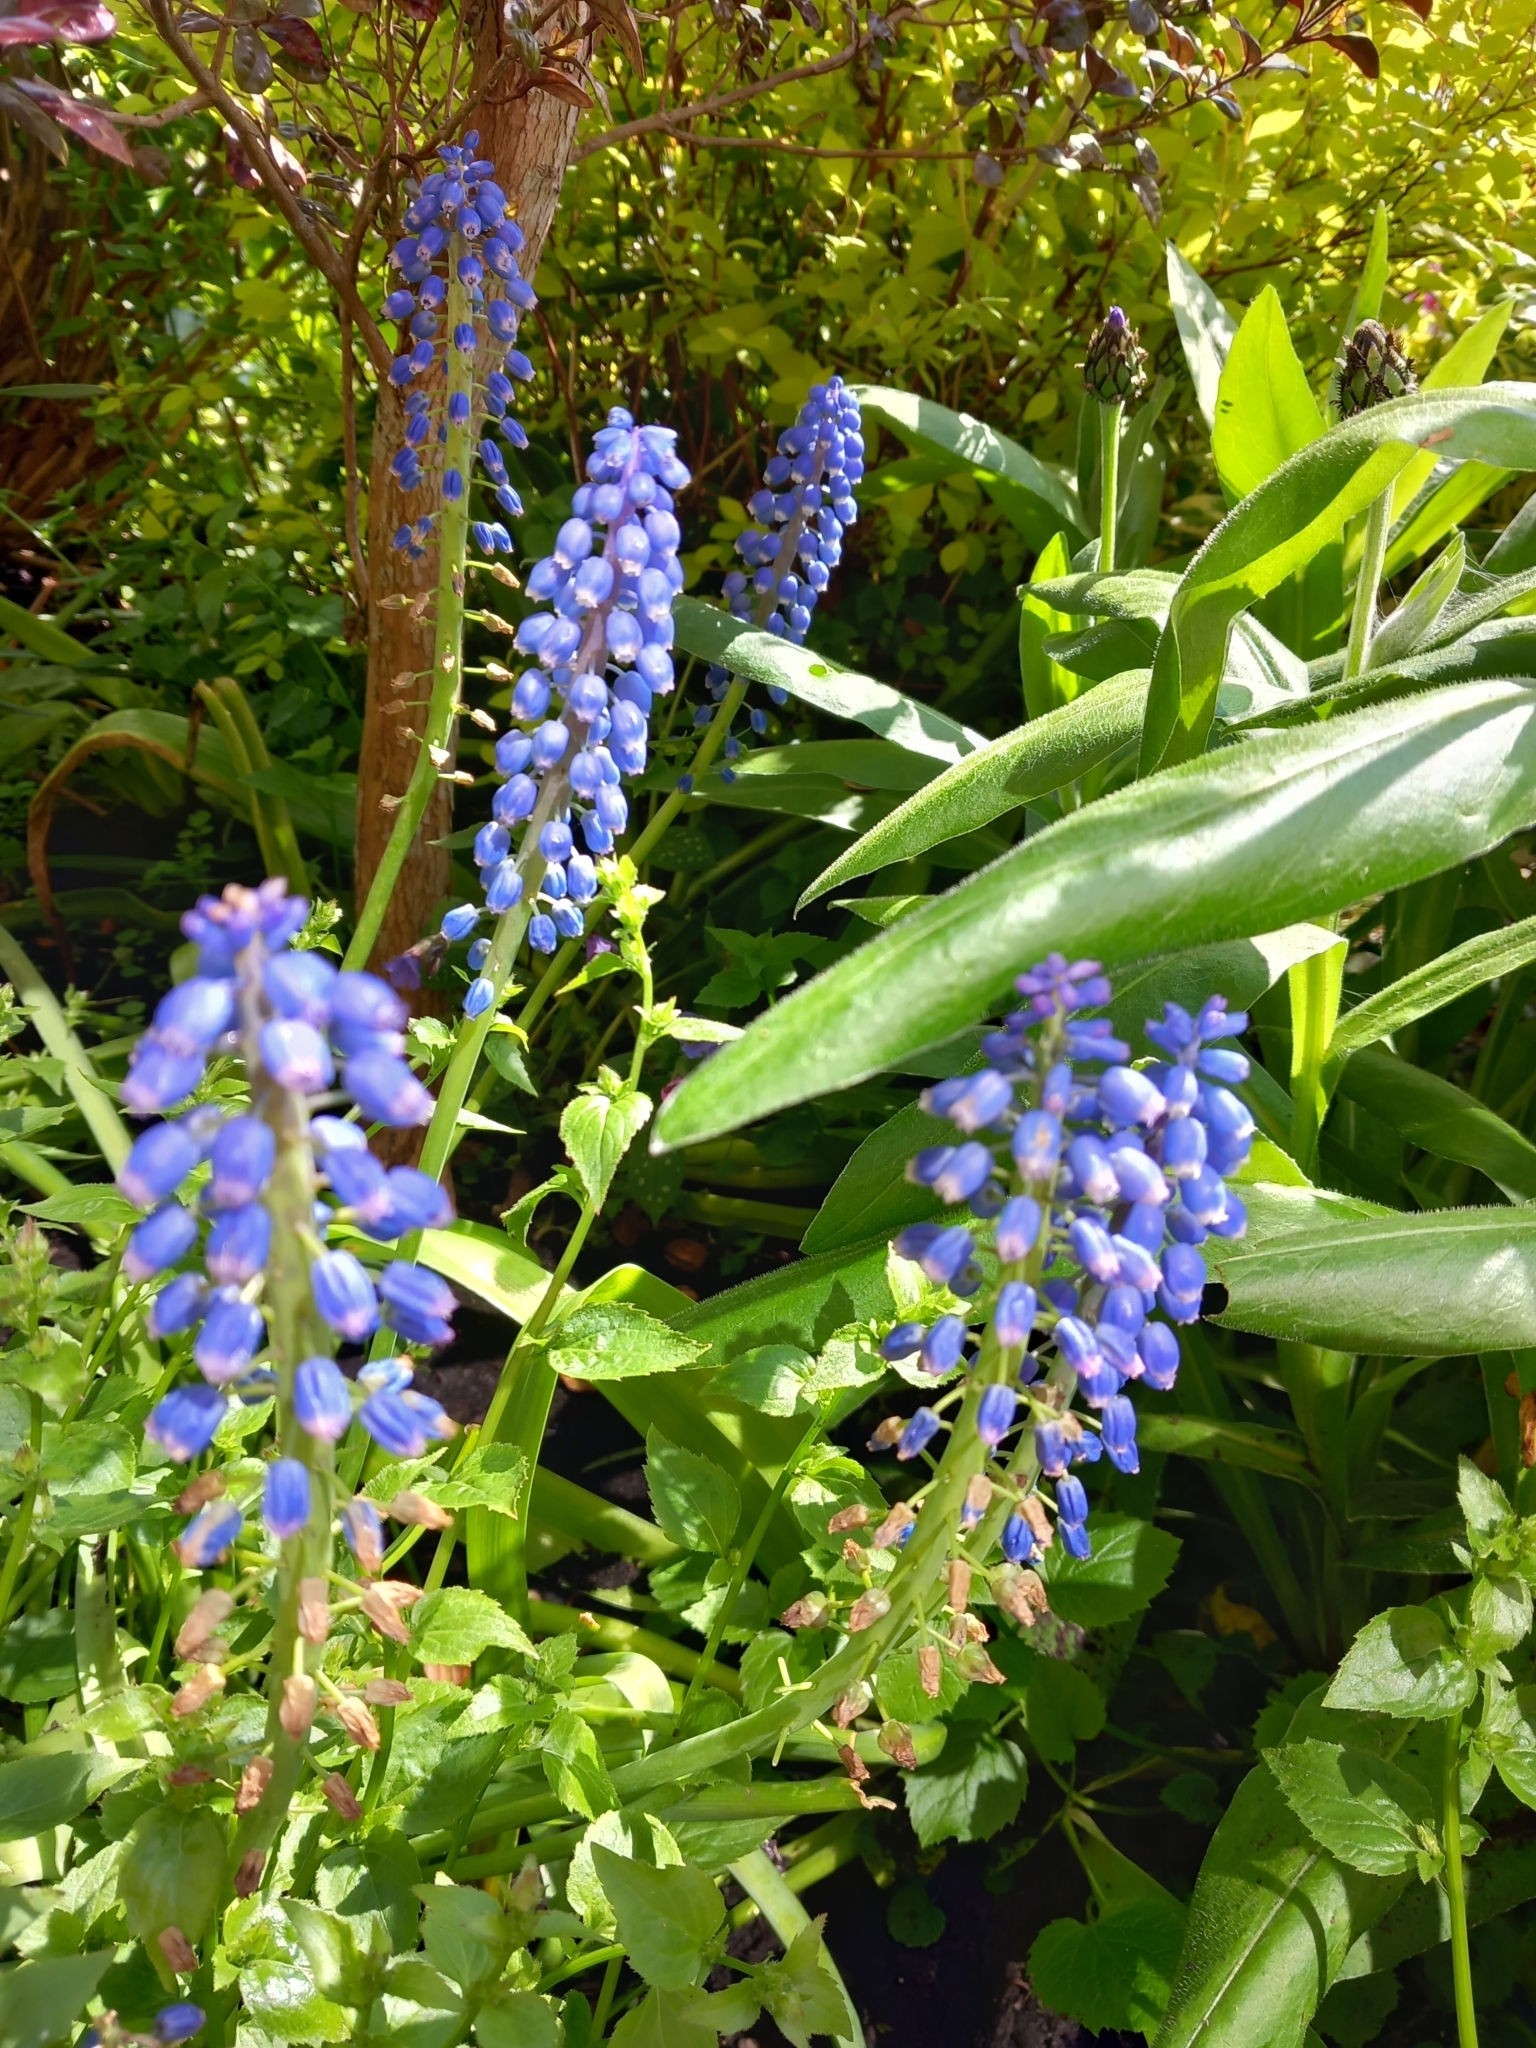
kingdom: Plantae
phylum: Tracheophyta
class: Liliopsida
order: Asparagales
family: Asparagaceae
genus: Muscari
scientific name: Muscari armeniacum
